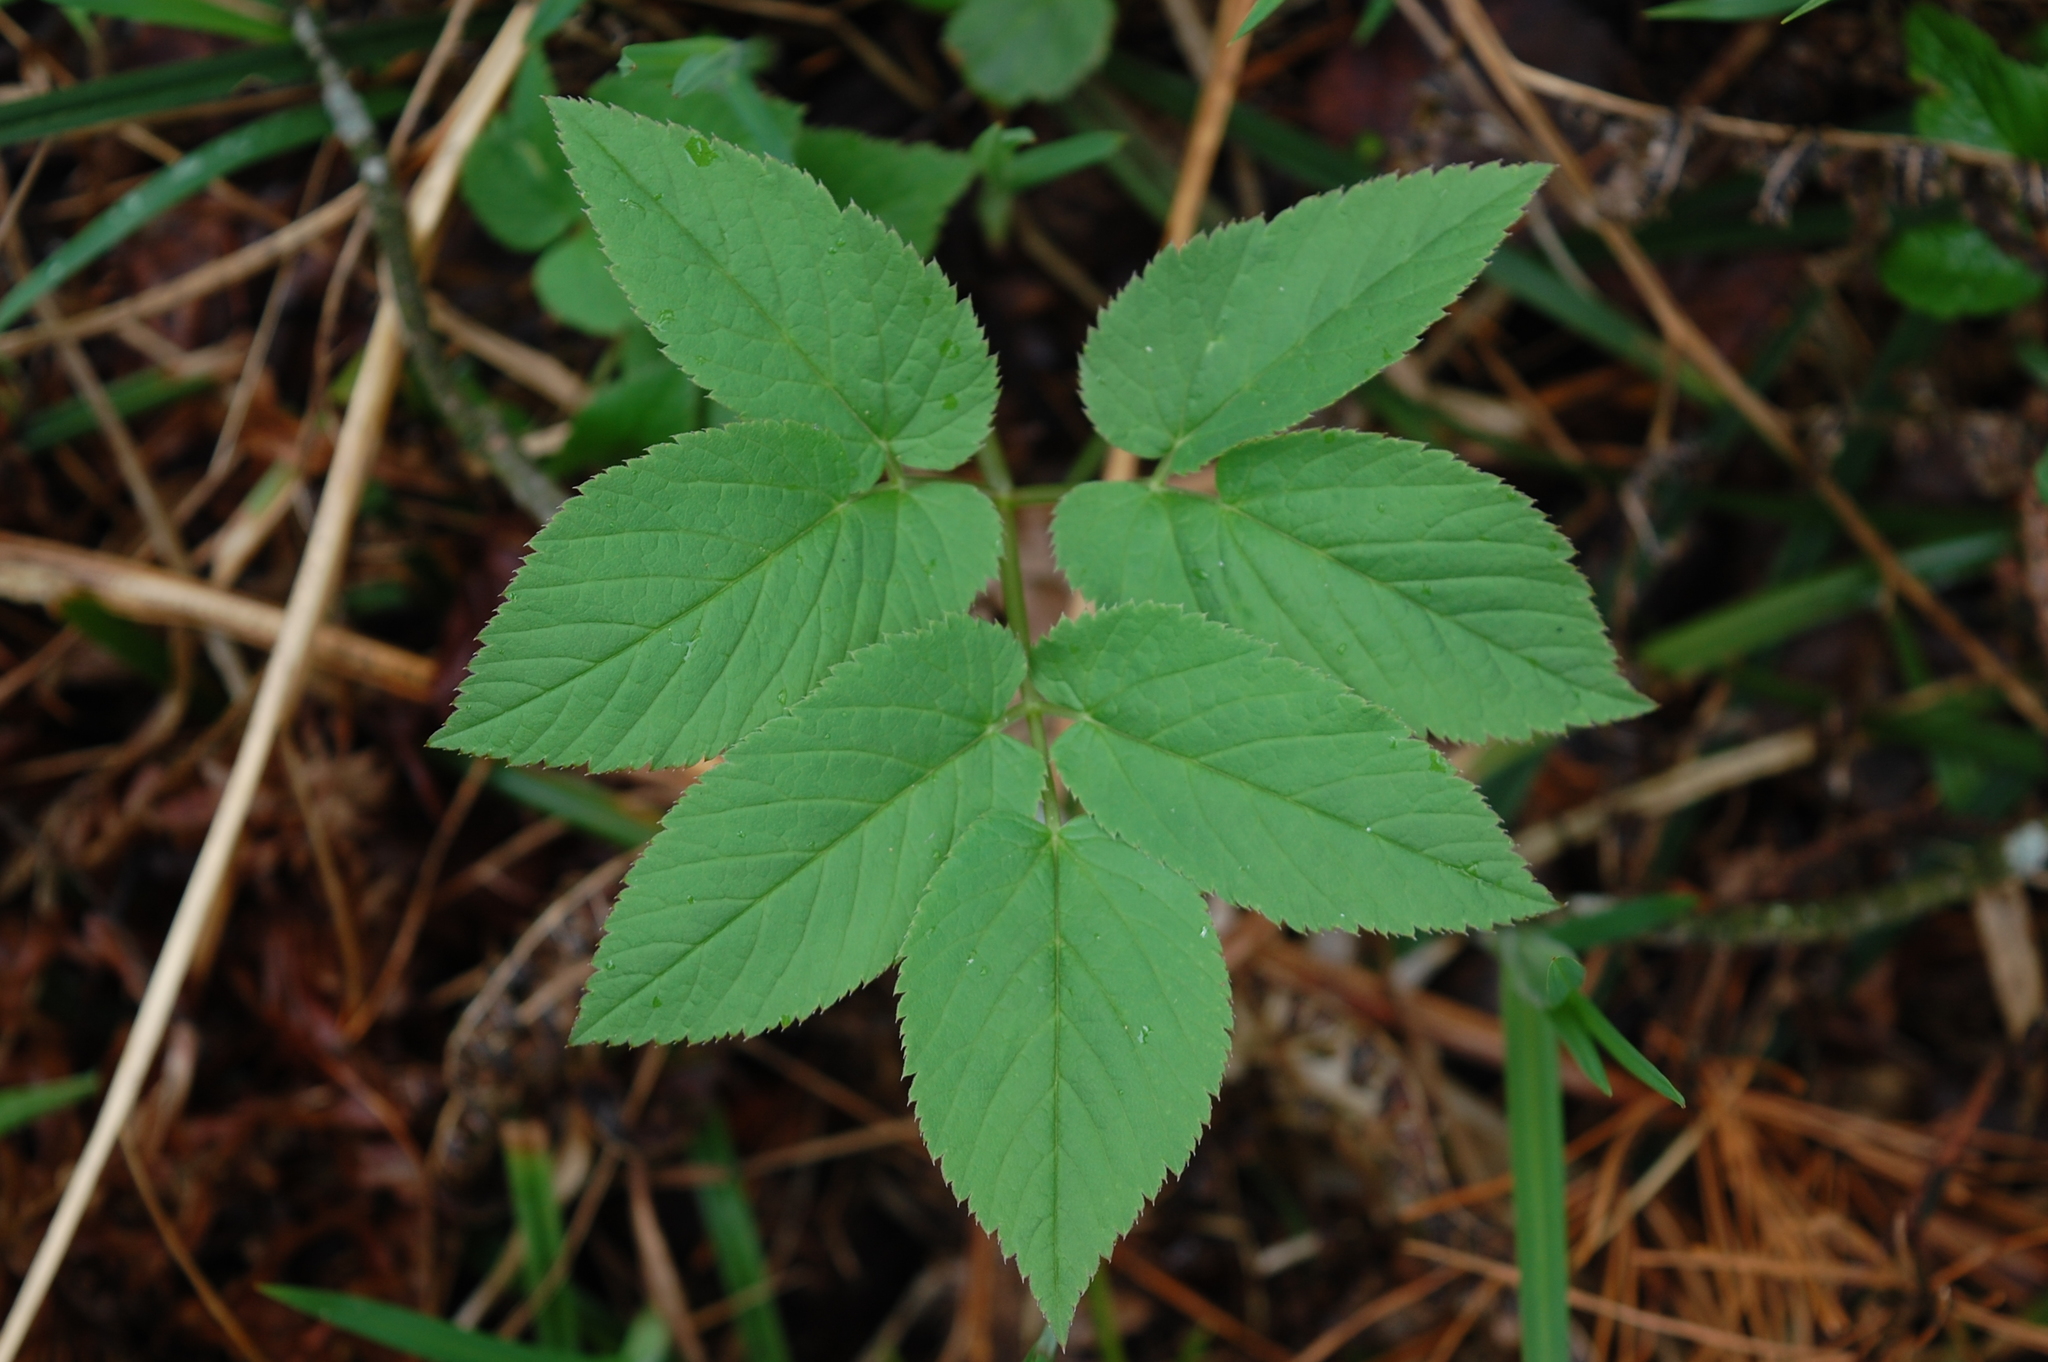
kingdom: Plantae
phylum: Tracheophyta
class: Magnoliopsida
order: Apiales
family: Apiaceae
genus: Aegopodium
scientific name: Aegopodium podagraria
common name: Ground-elder
